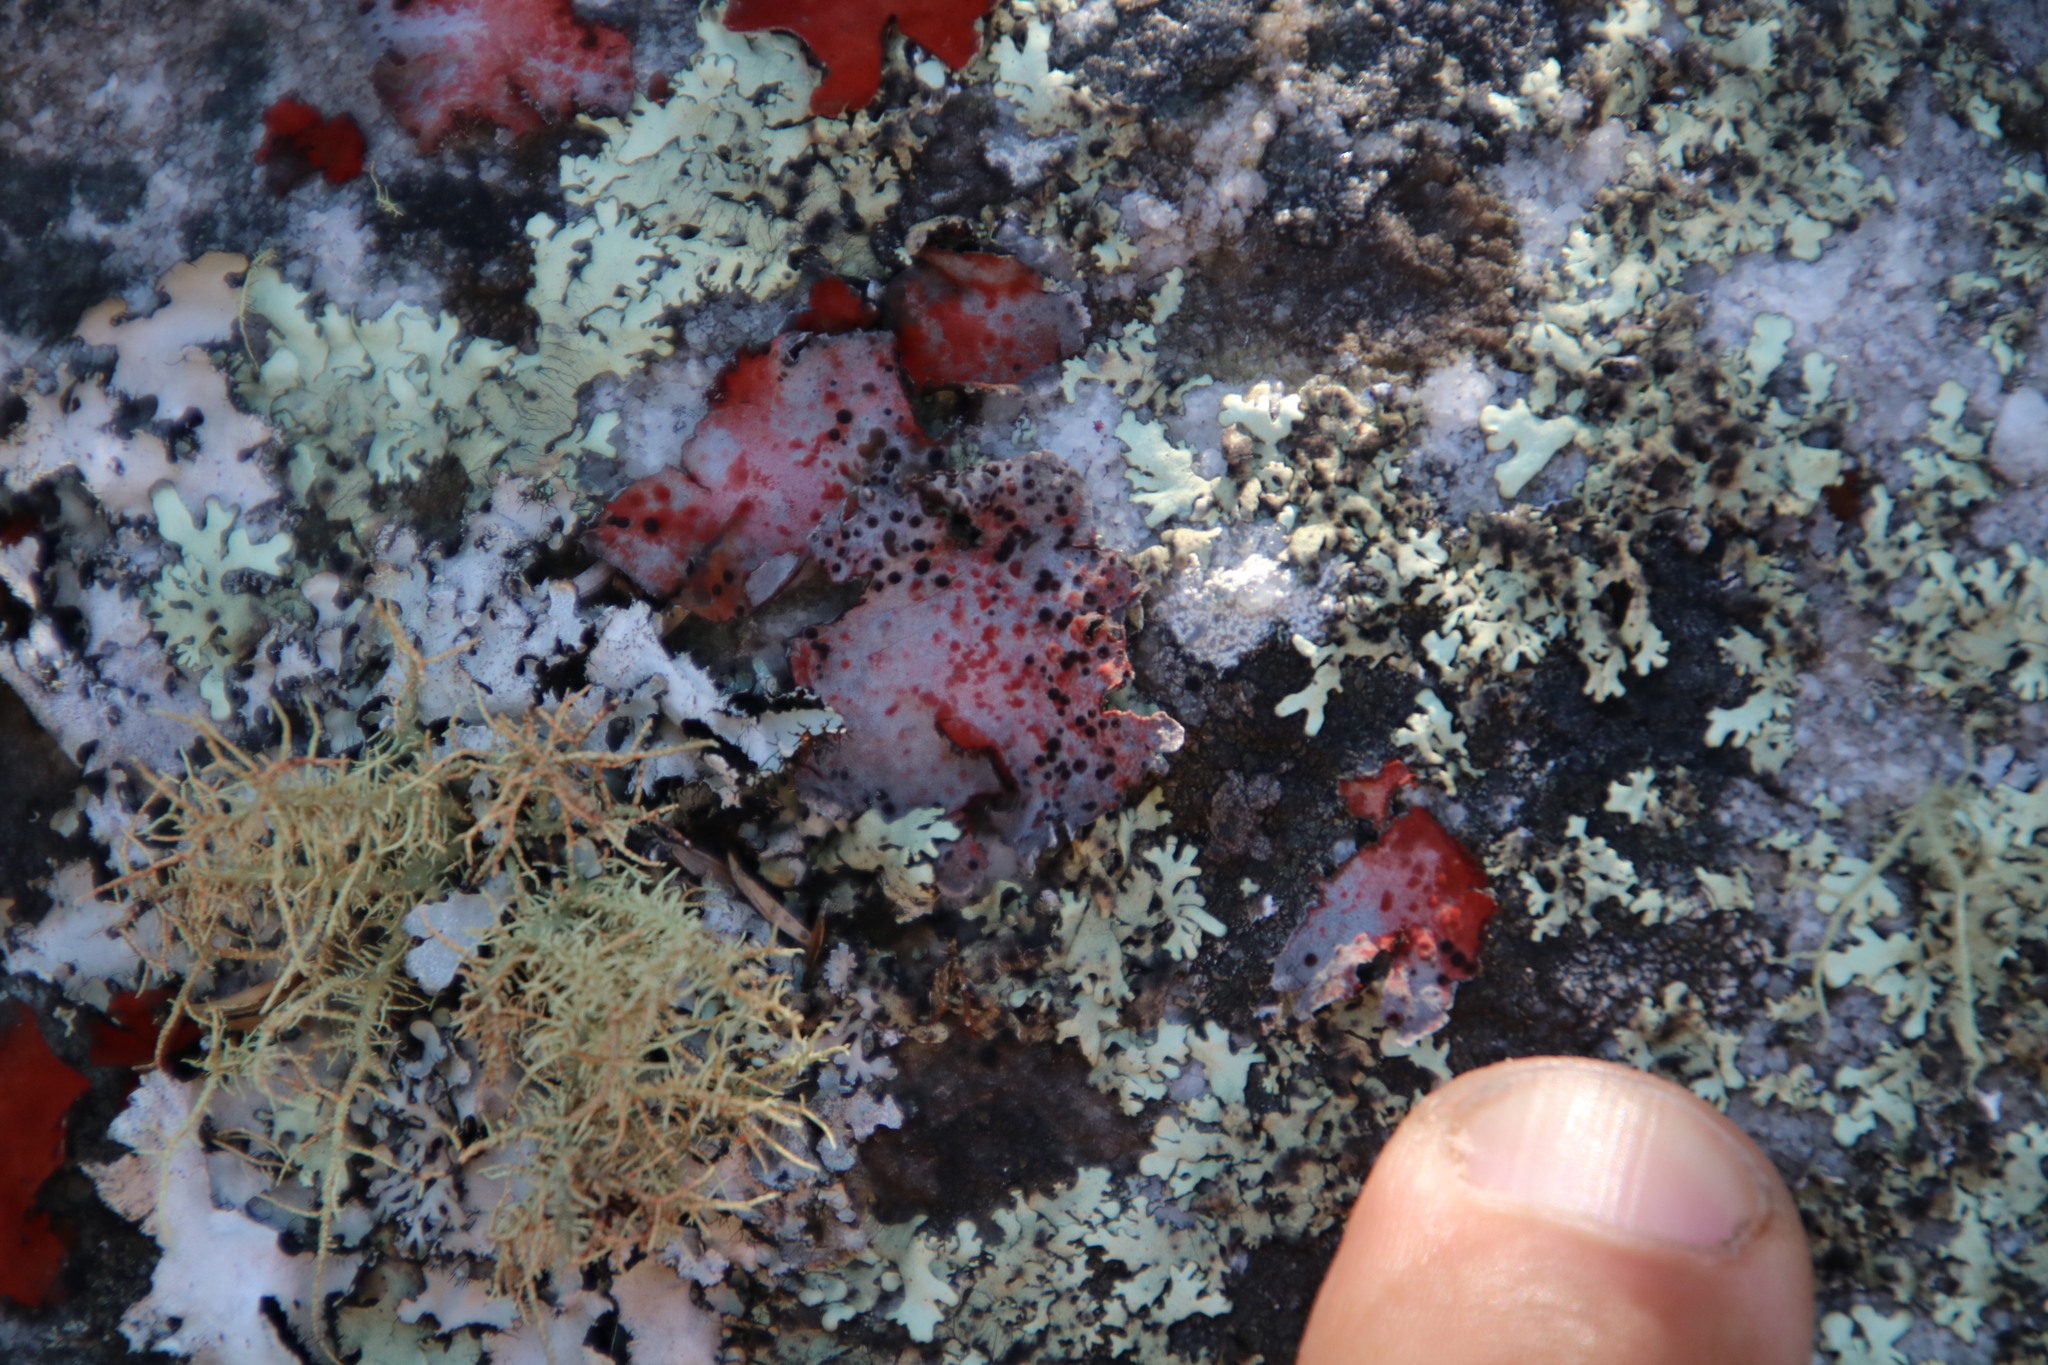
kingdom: Fungi
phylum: Ascomycota
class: Lecanoromycetes
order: Umbilicariales
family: Umbilicariaceae
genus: Lasallia
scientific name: Lasallia rubiginosa
